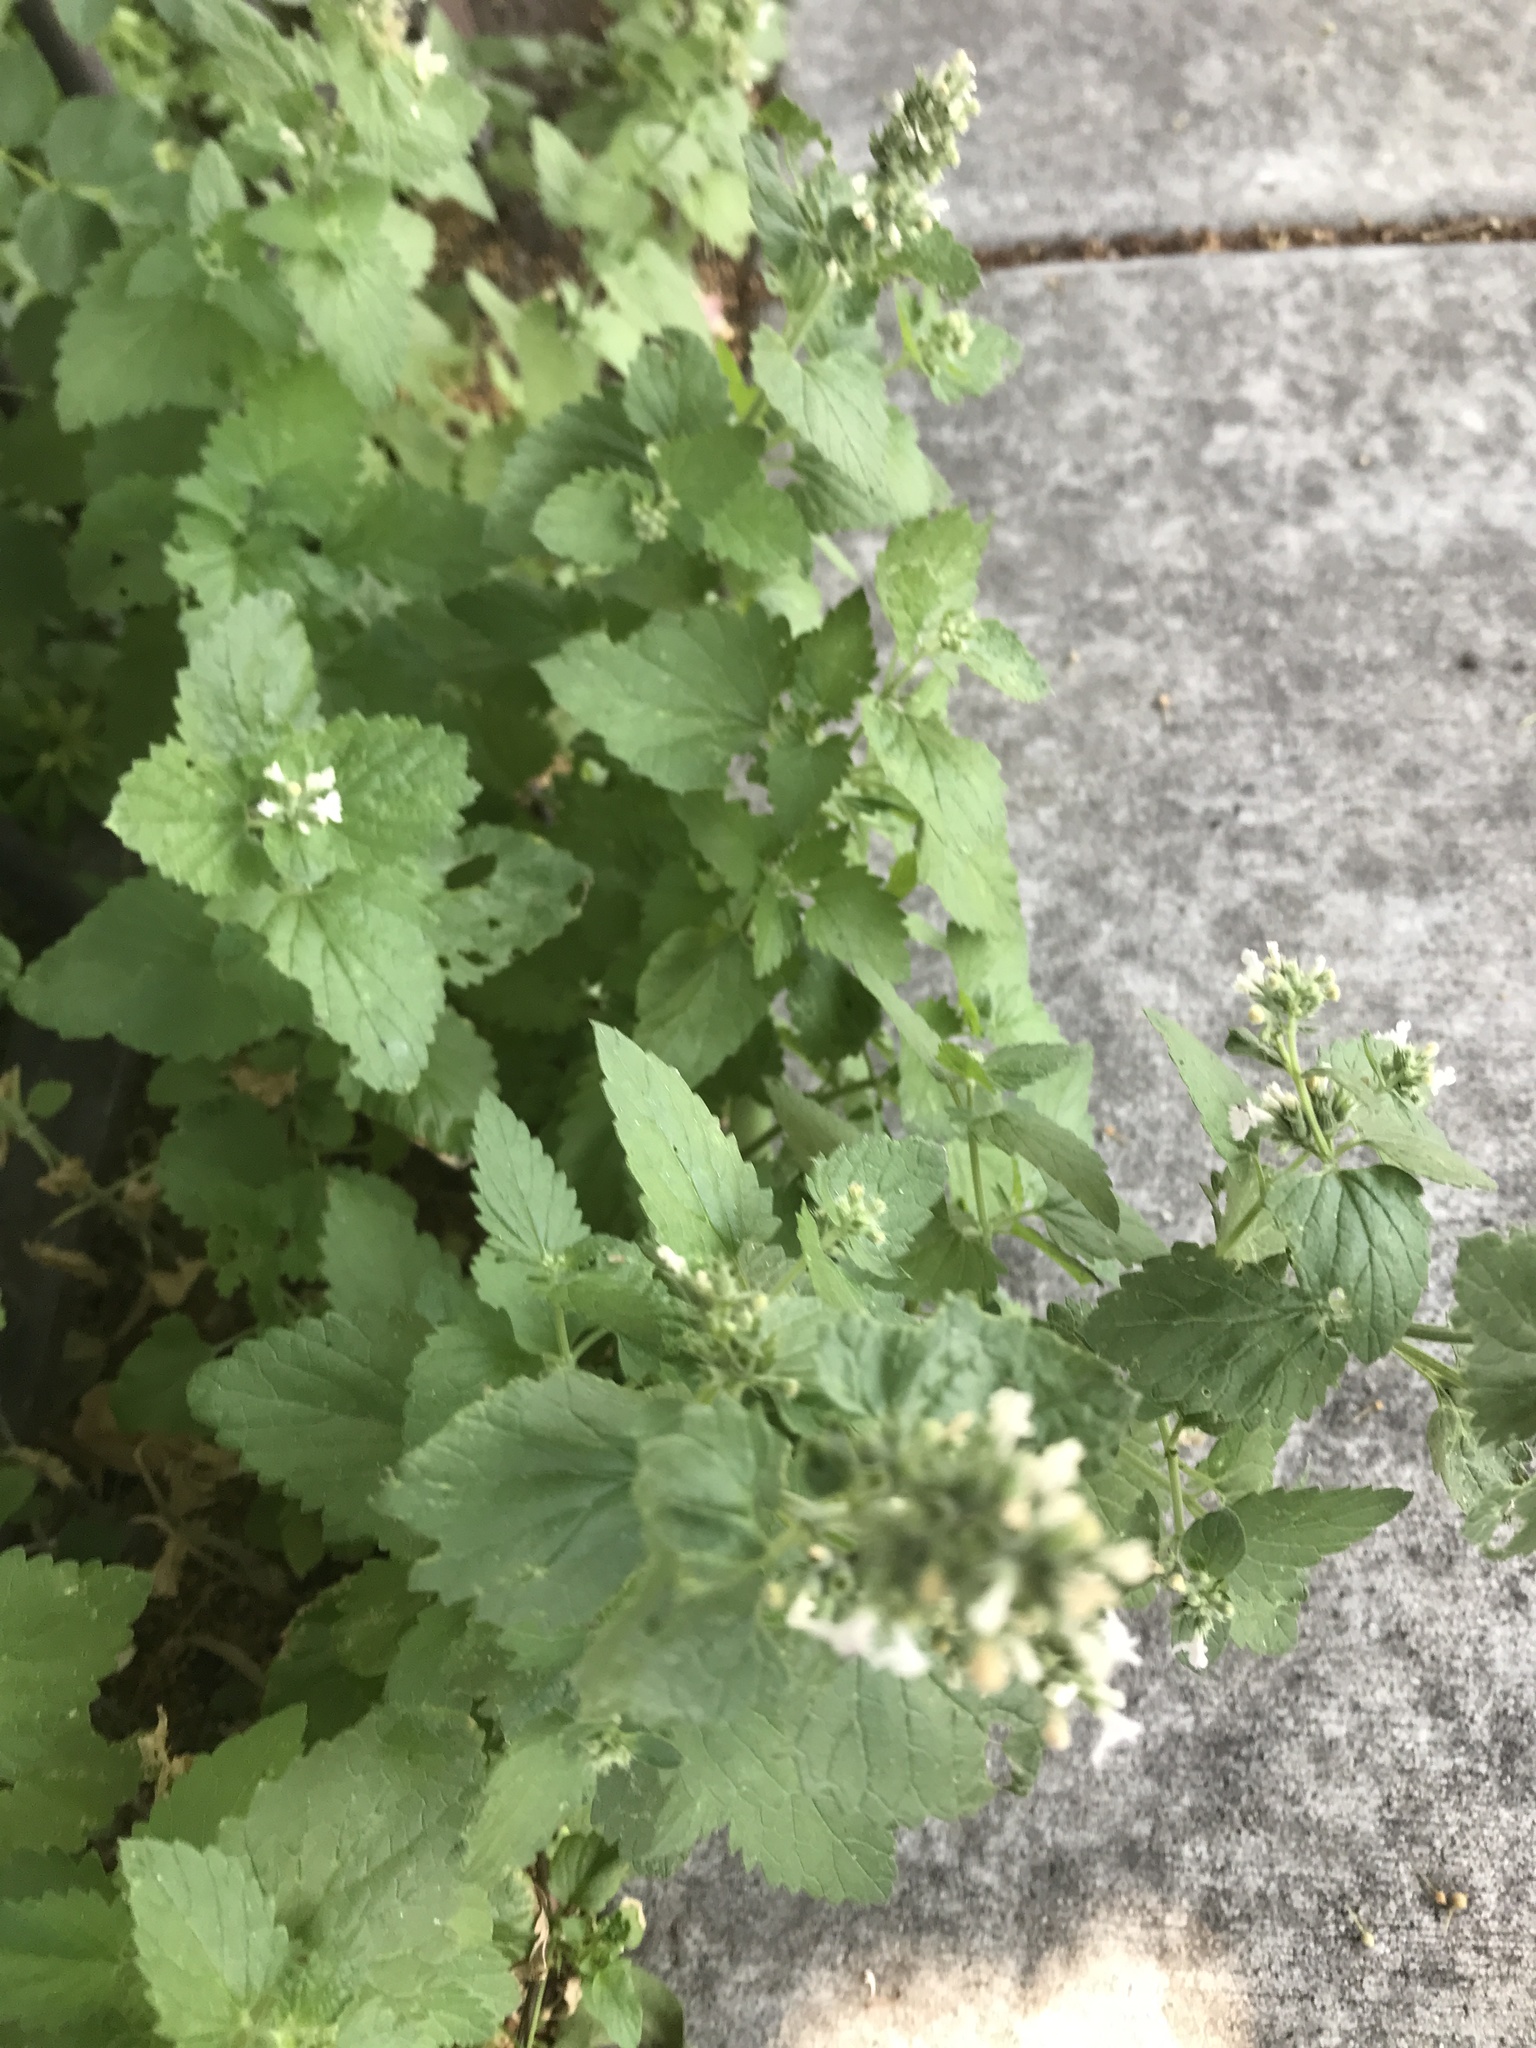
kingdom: Plantae
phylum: Tracheophyta
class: Magnoliopsida
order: Lamiales
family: Lamiaceae
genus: Nepeta
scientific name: Nepeta cataria
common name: Catnip
